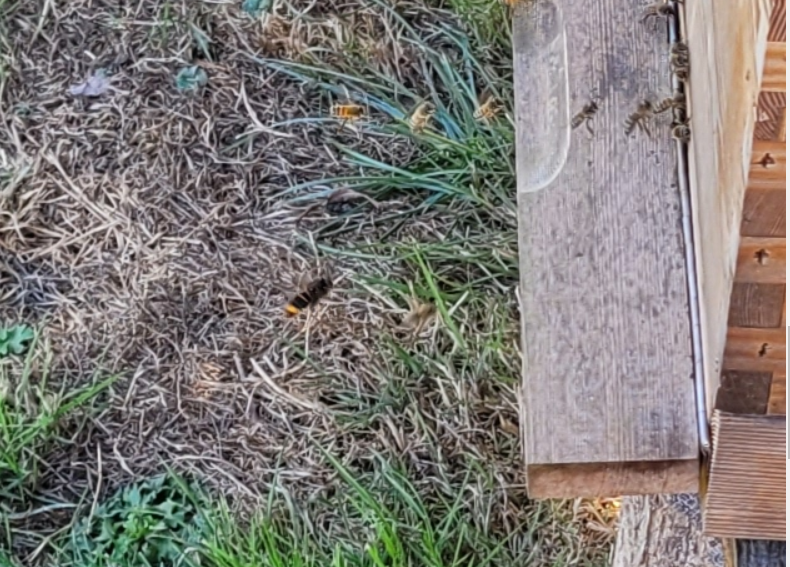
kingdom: Animalia
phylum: Arthropoda
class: Insecta
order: Hymenoptera
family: Vespidae
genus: Vespa
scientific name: Vespa velutina
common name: Asian hornet
